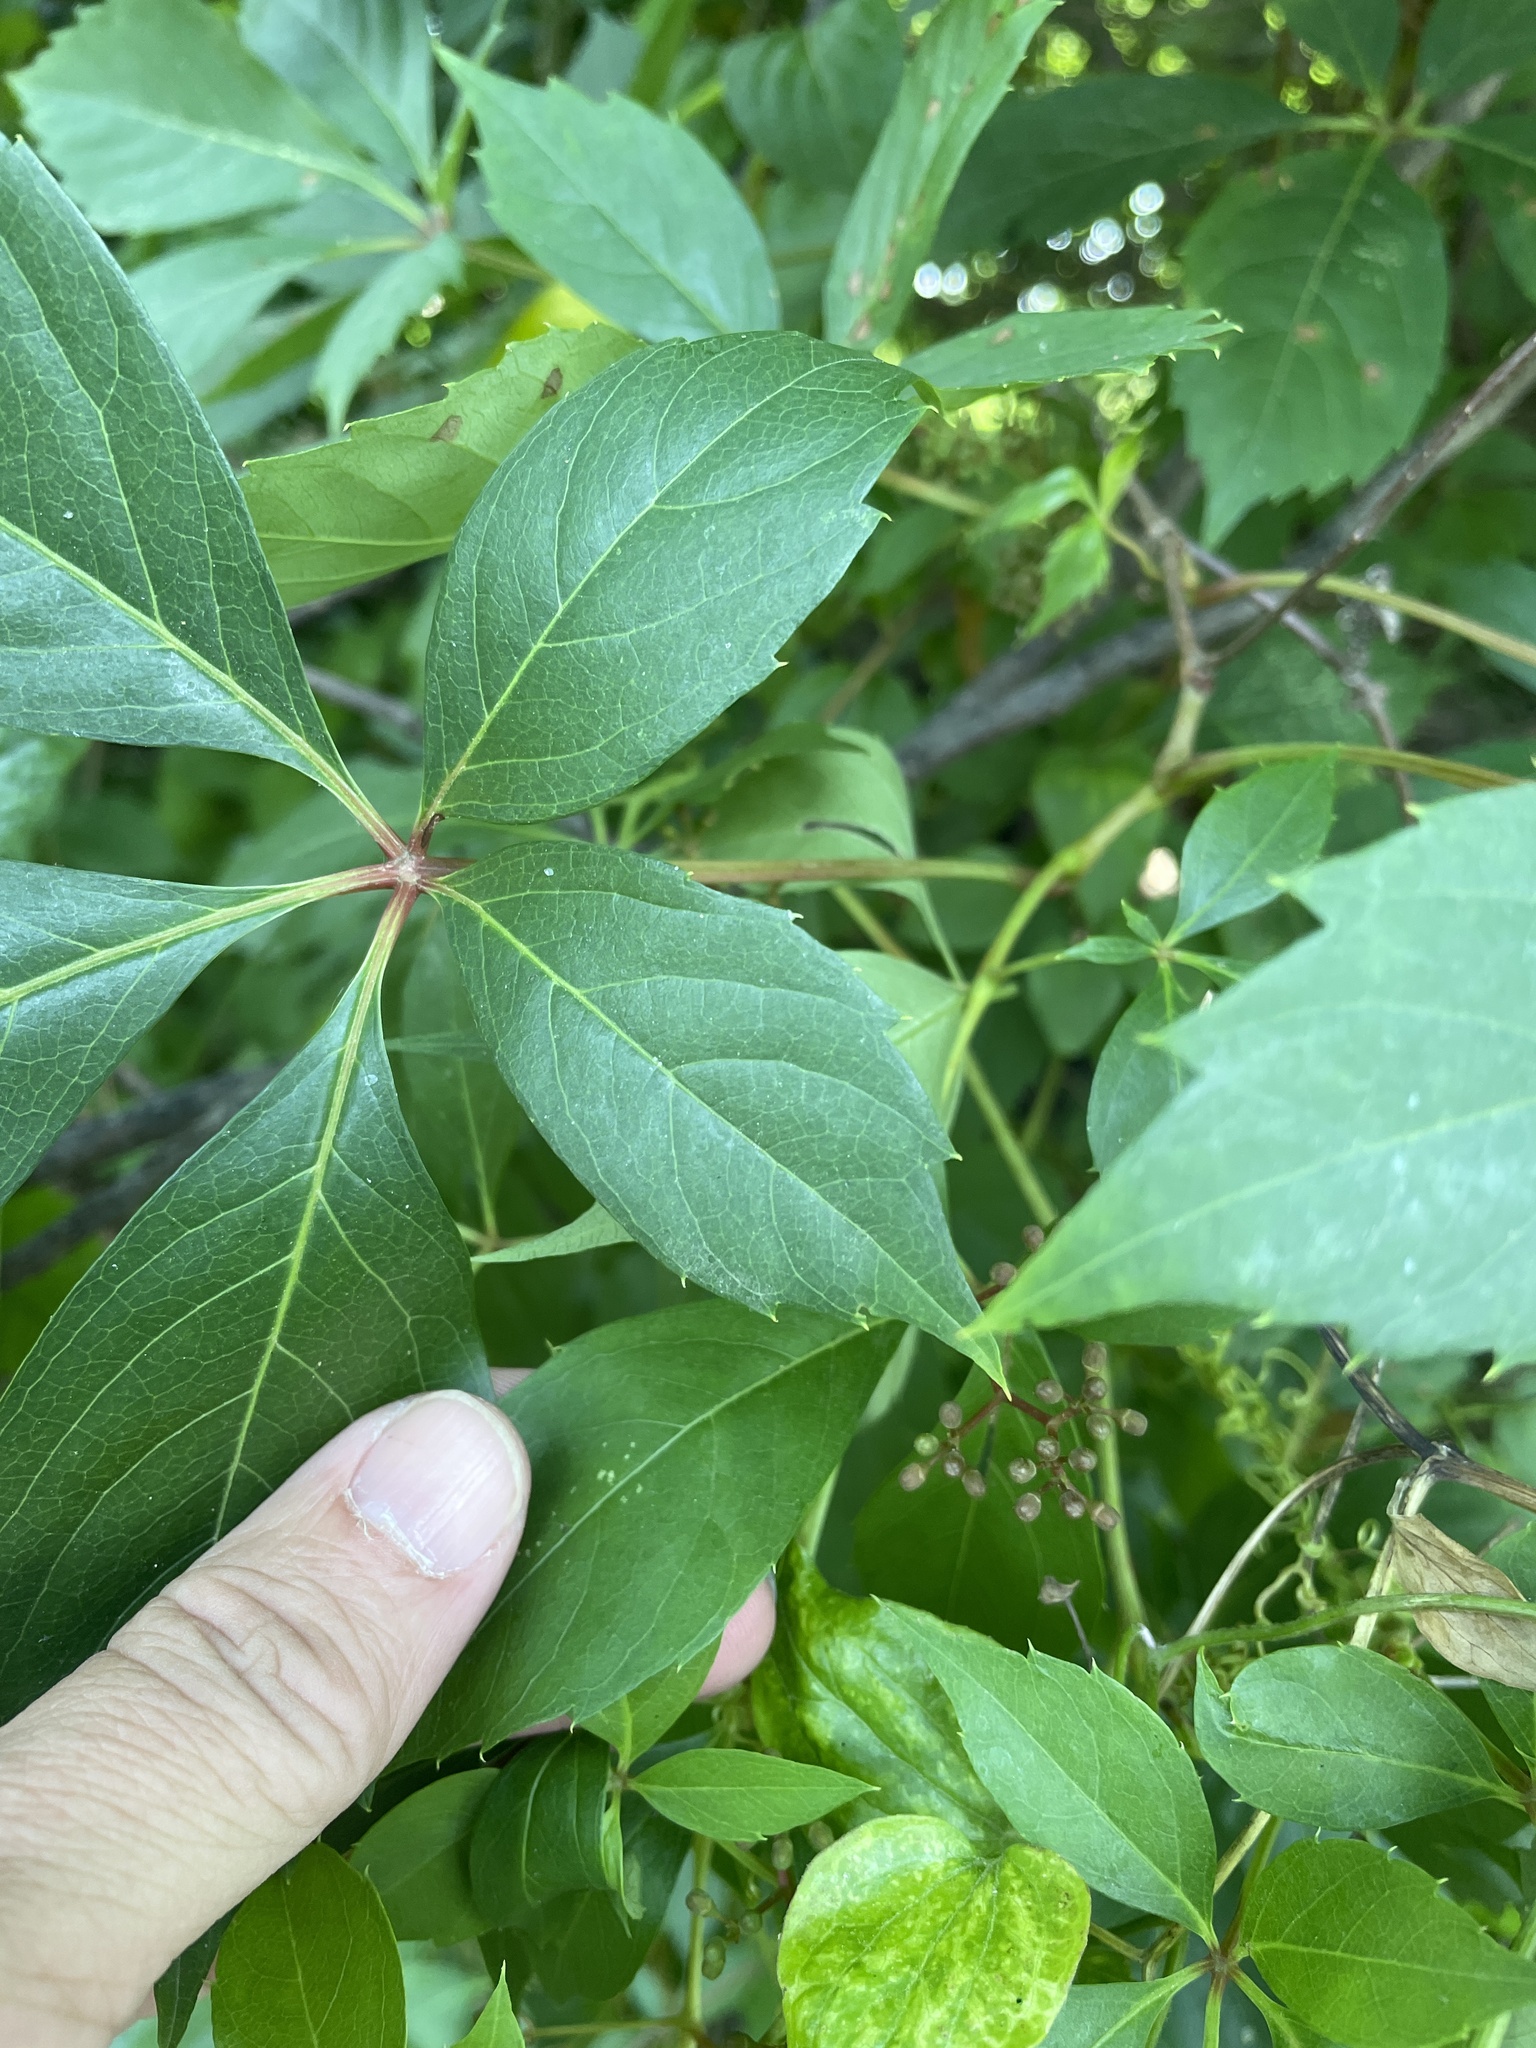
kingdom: Plantae
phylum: Tracheophyta
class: Magnoliopsida
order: Vitales
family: Vitaceae
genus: Parthenocissus
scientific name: Parthenocissus quinquefolia
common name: Virginia-creeper
